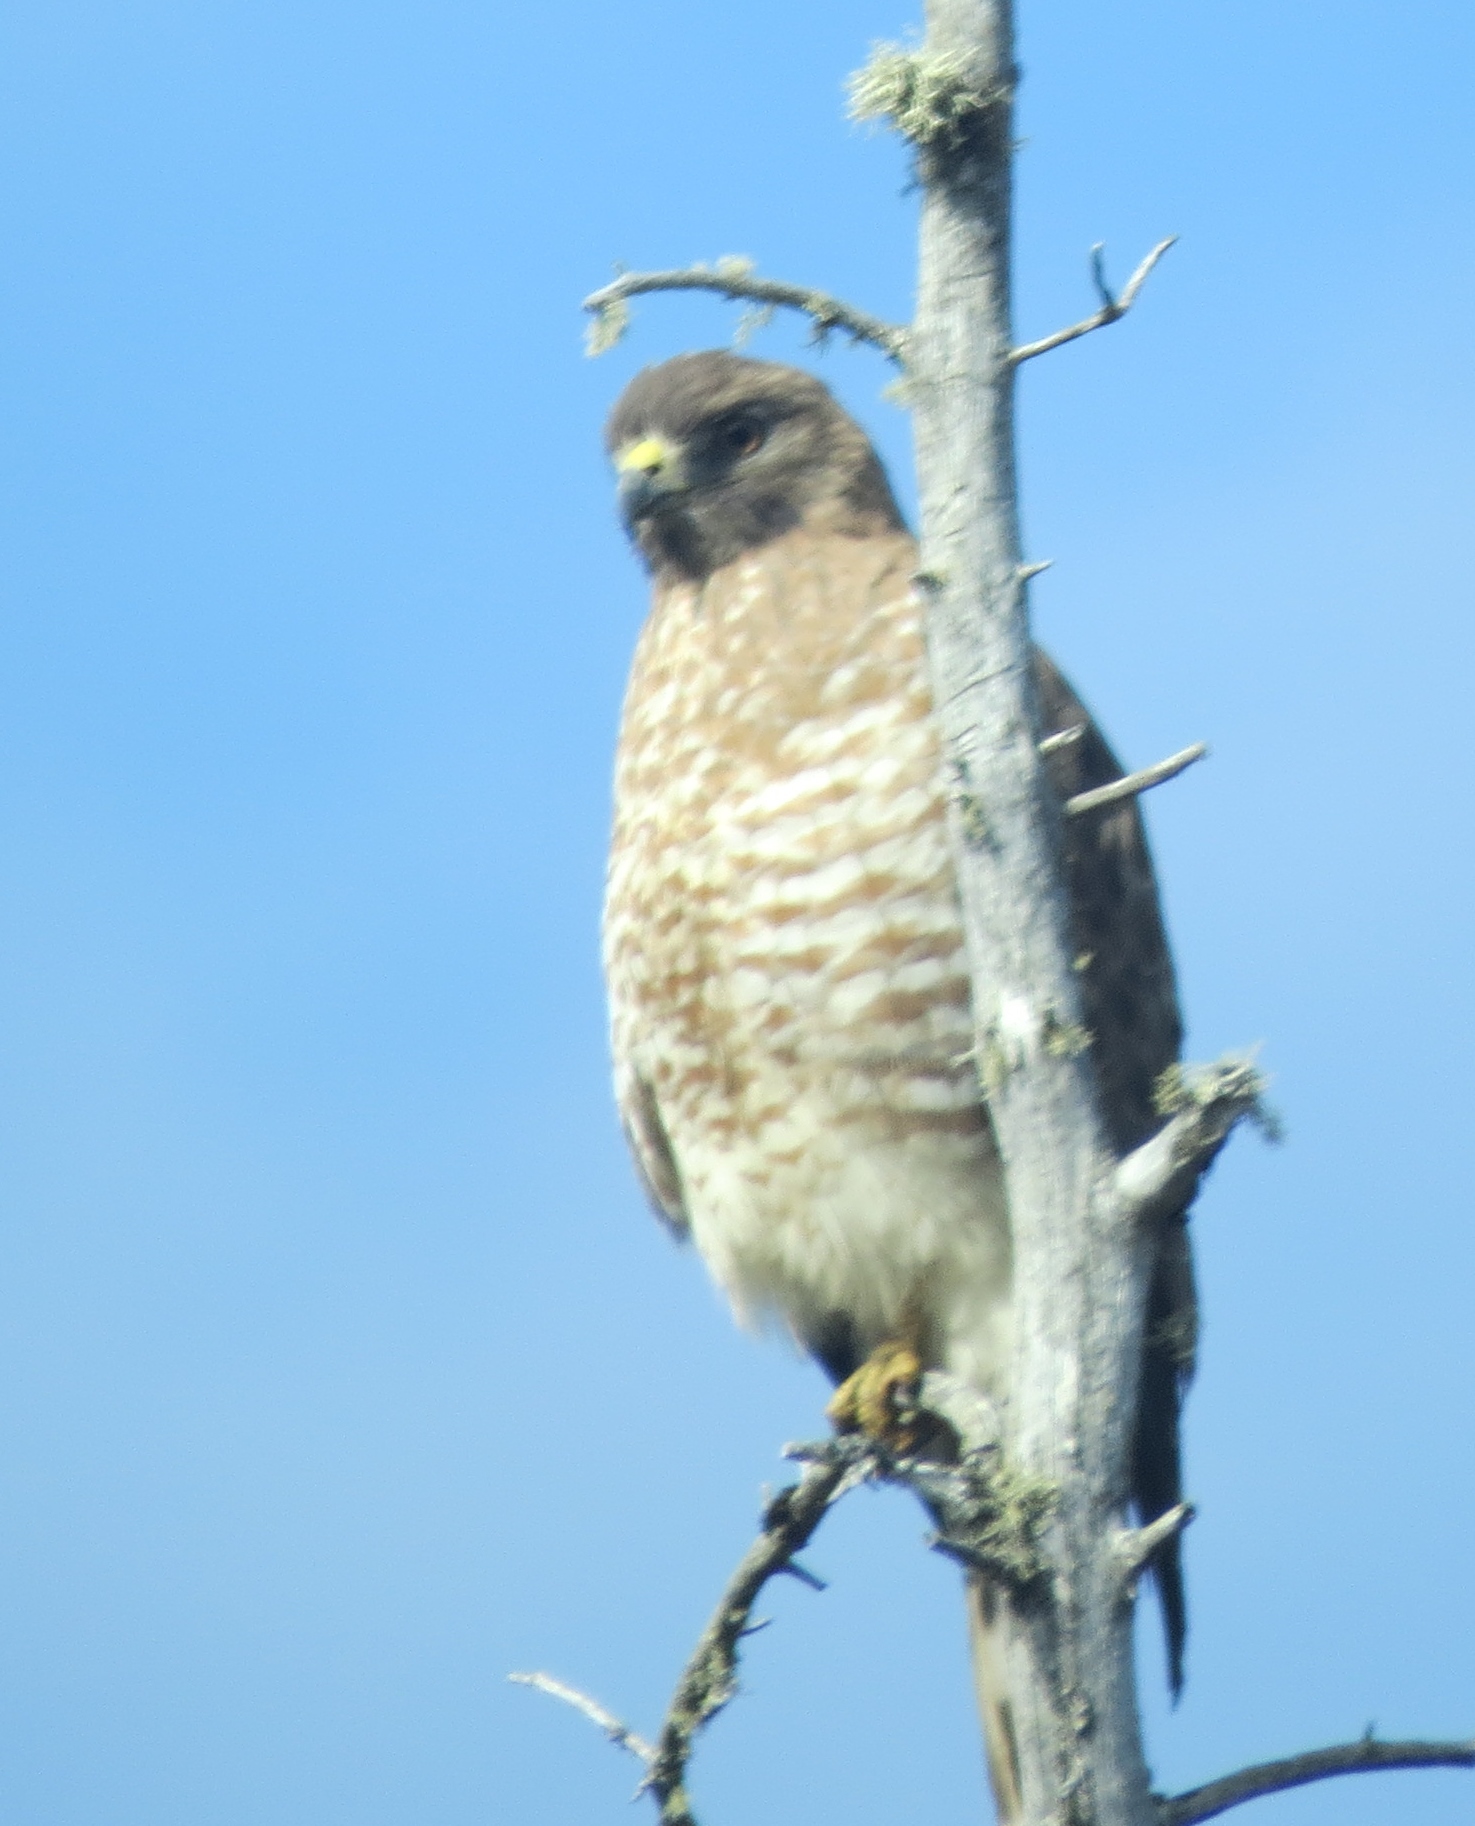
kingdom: Animalia
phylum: Chordata
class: Aves
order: Accipitriformes
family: Accipitridae
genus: Buteo
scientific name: Buteo platypterus
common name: Broad-winged hawk
